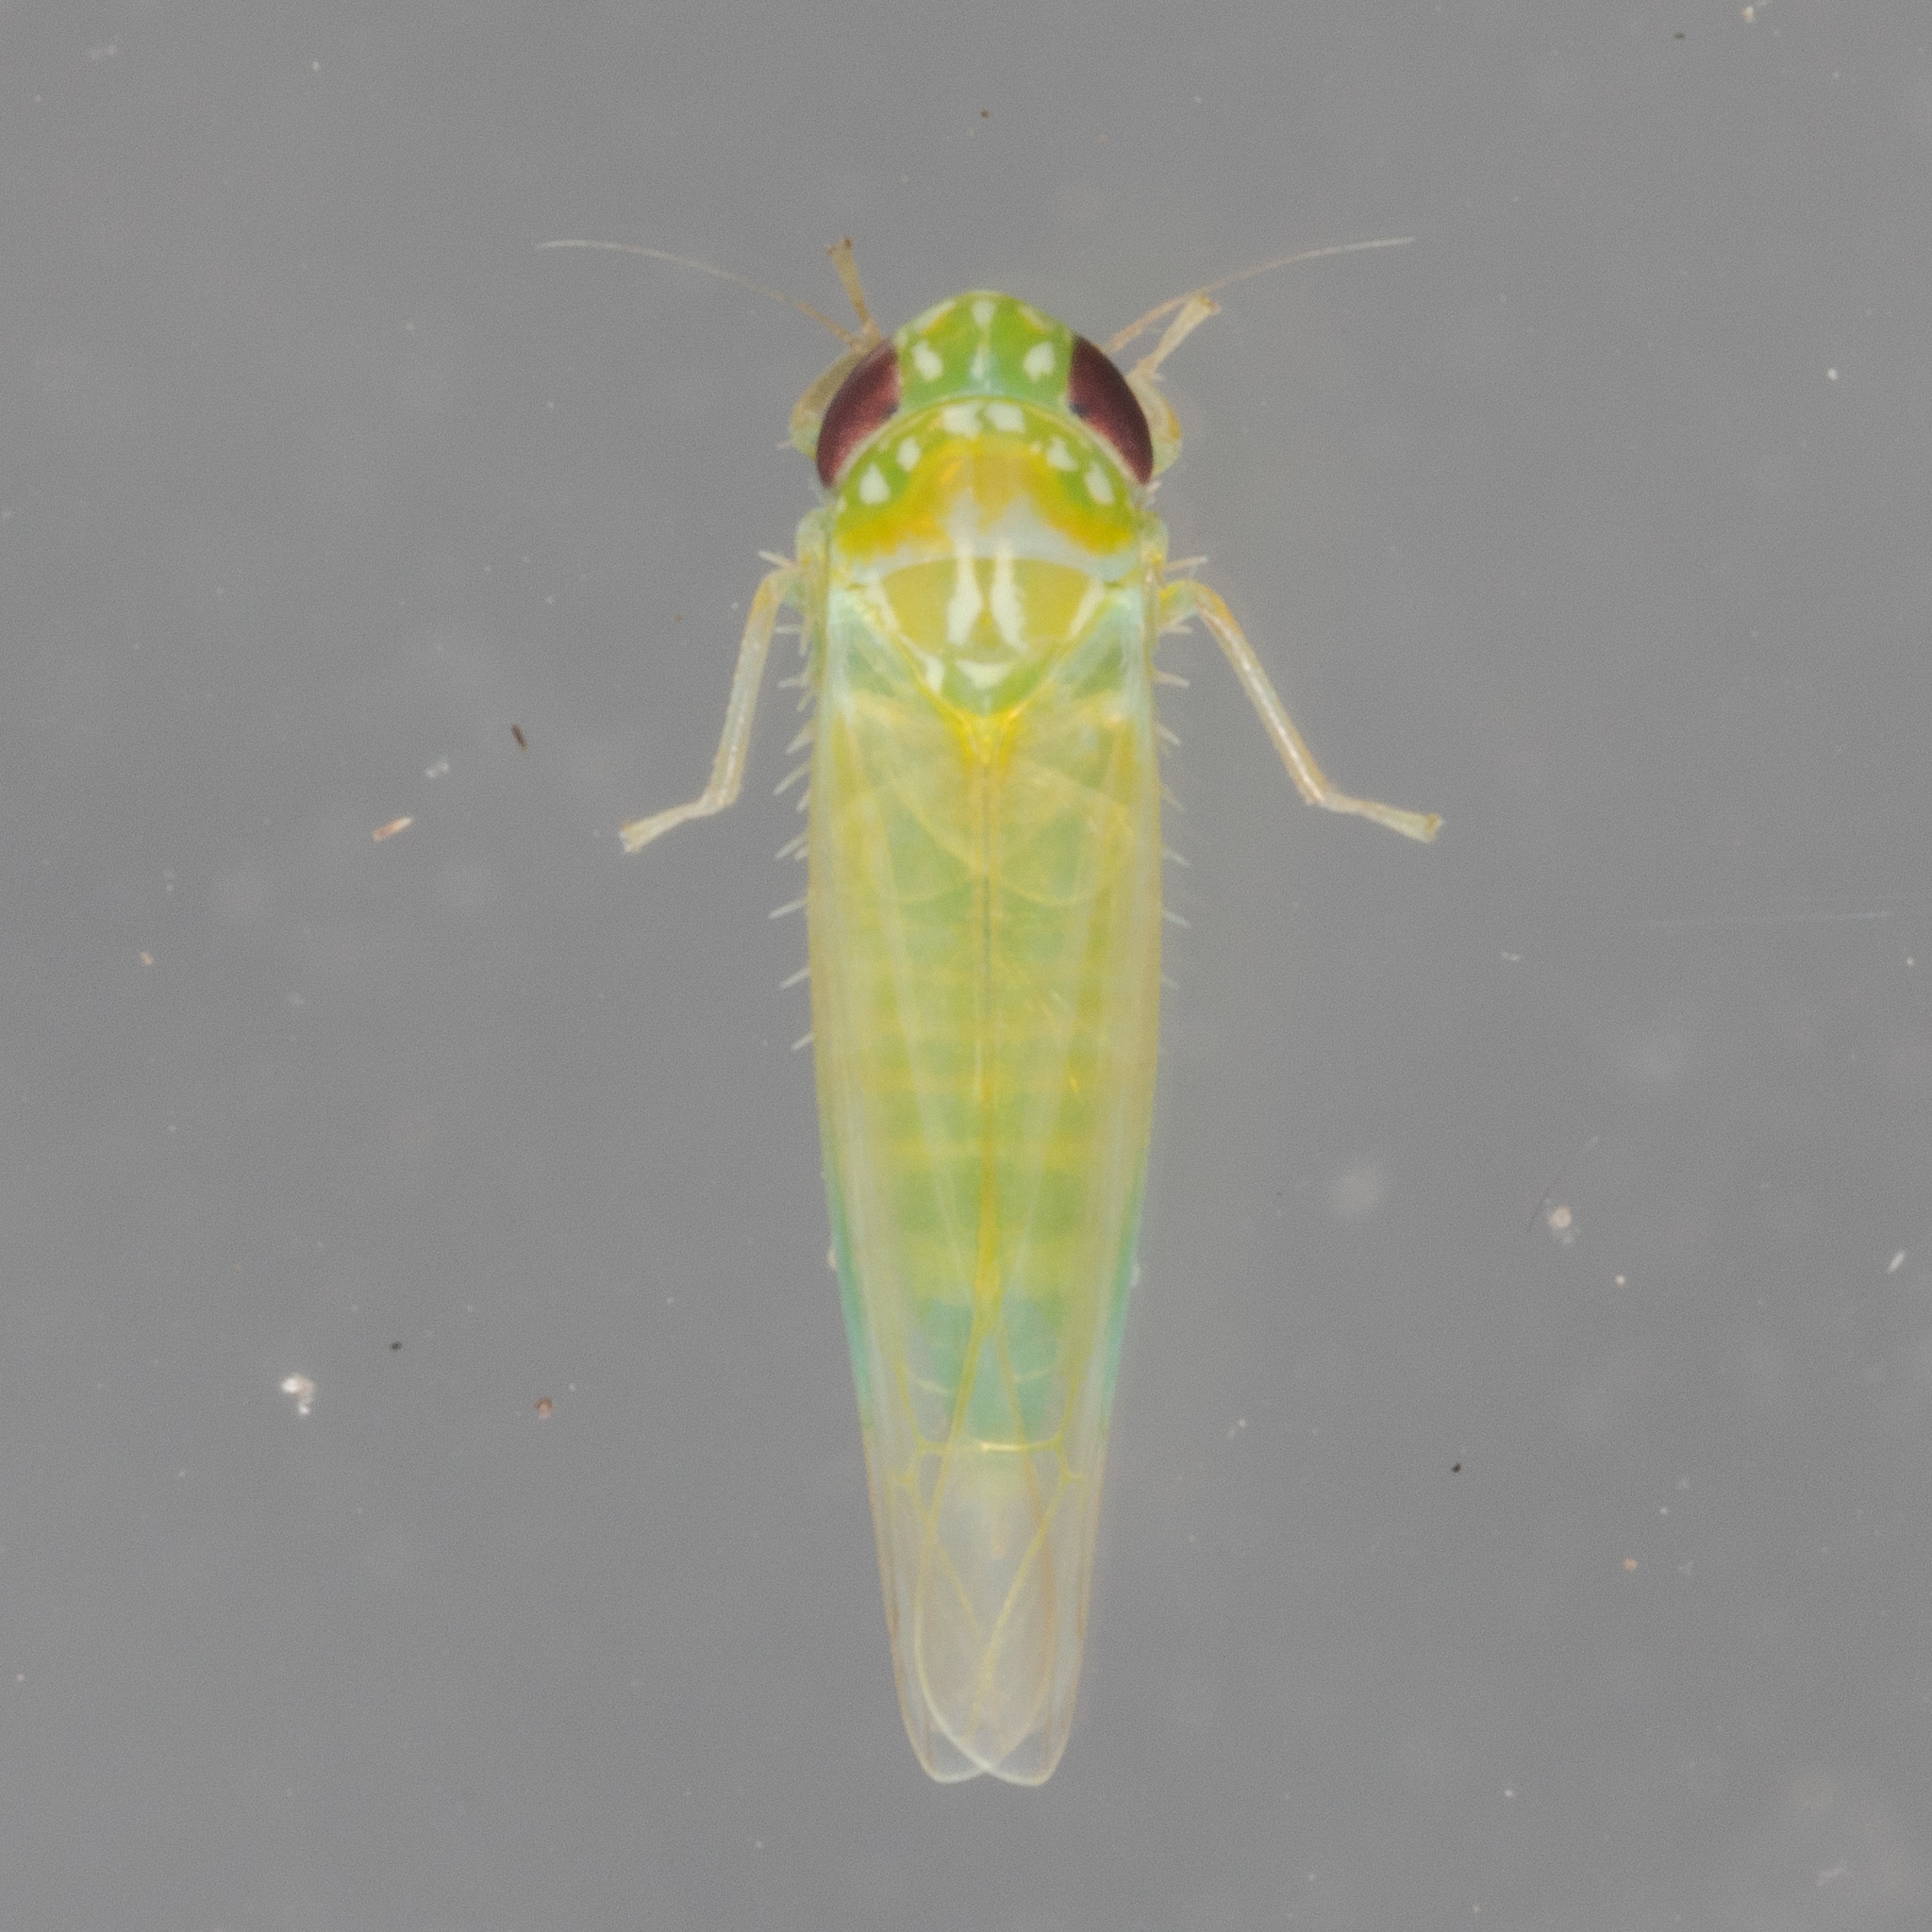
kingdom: Animalia
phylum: Arthropoda
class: Insecta
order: Hemiptera
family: Cicadellidae
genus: Empoasca
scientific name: Empoasca fabae
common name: Potato leafhopper
